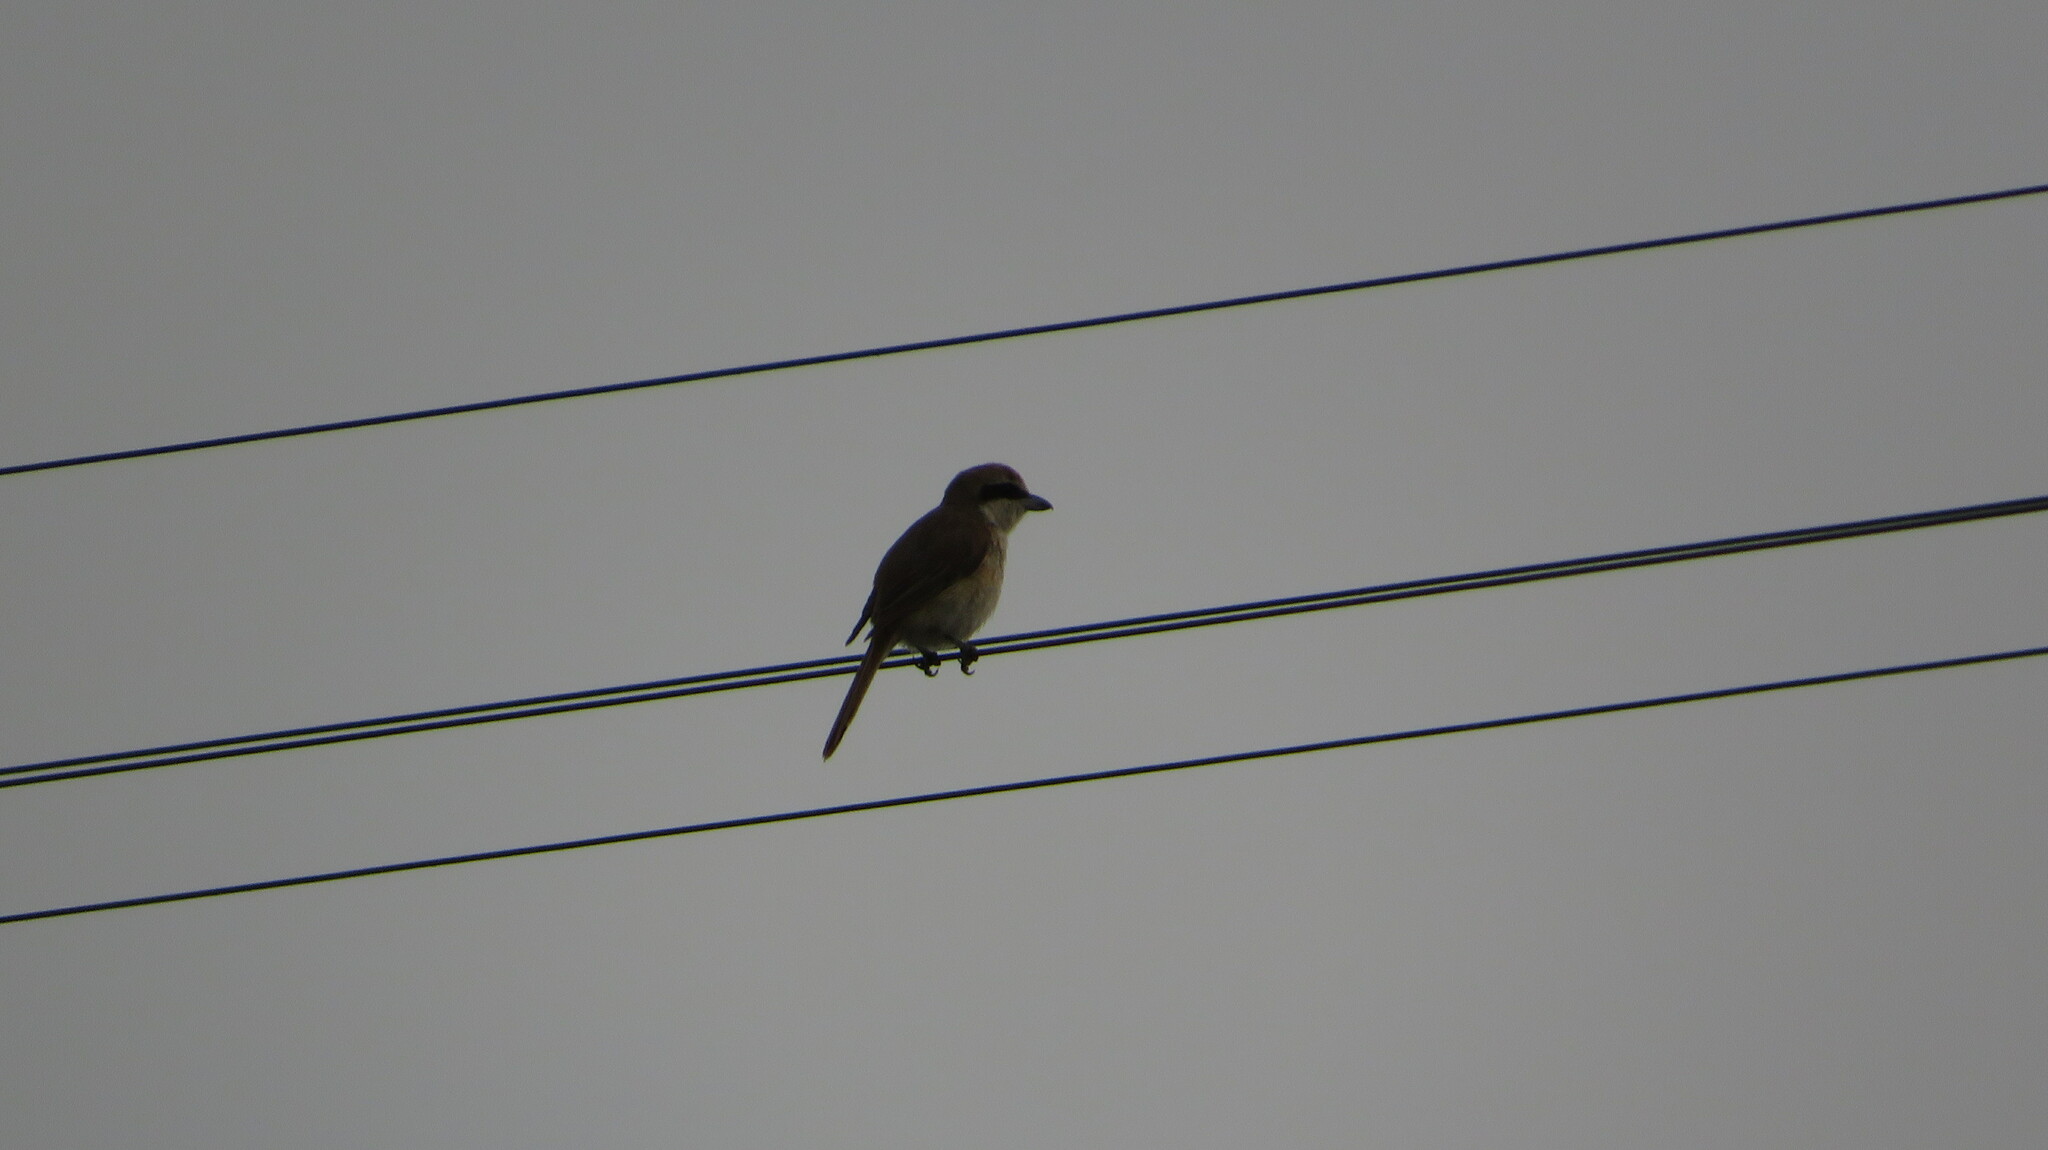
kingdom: Animalia
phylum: Chordata
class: Aves
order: Passeriformes
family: Laniidae
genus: Lanius
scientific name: Lanius cristatus
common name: Brown shrike
